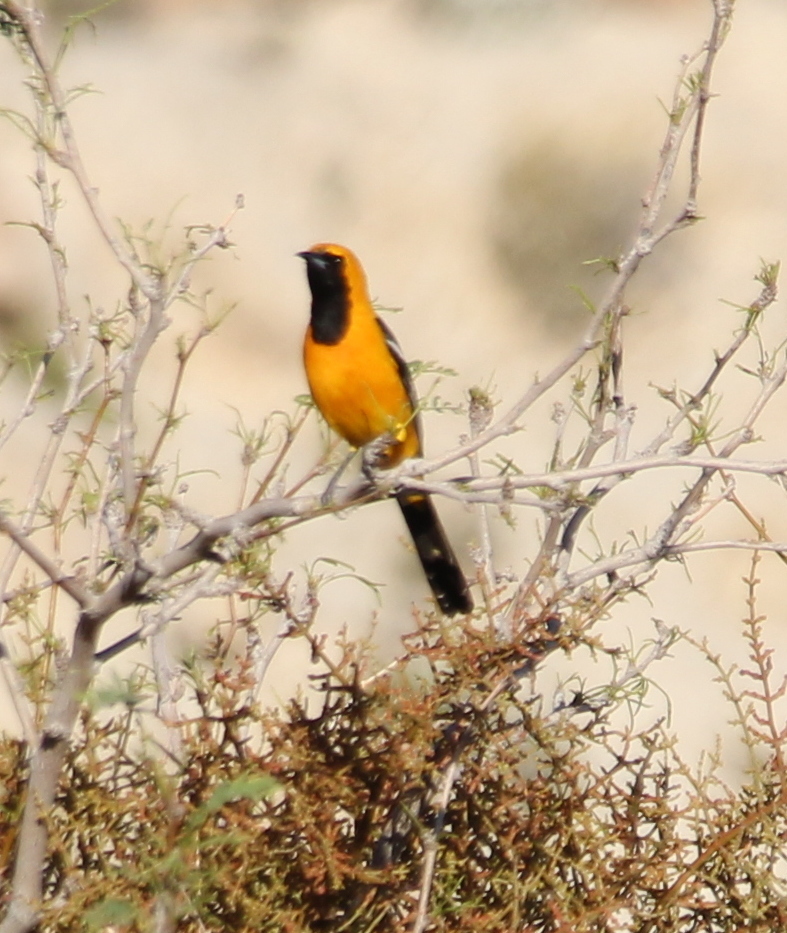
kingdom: Animalia
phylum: Chordata
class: Aves
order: Passeriformes
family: Icteridae
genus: Icterus
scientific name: Icterus cucullatus
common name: Hooded oriole
